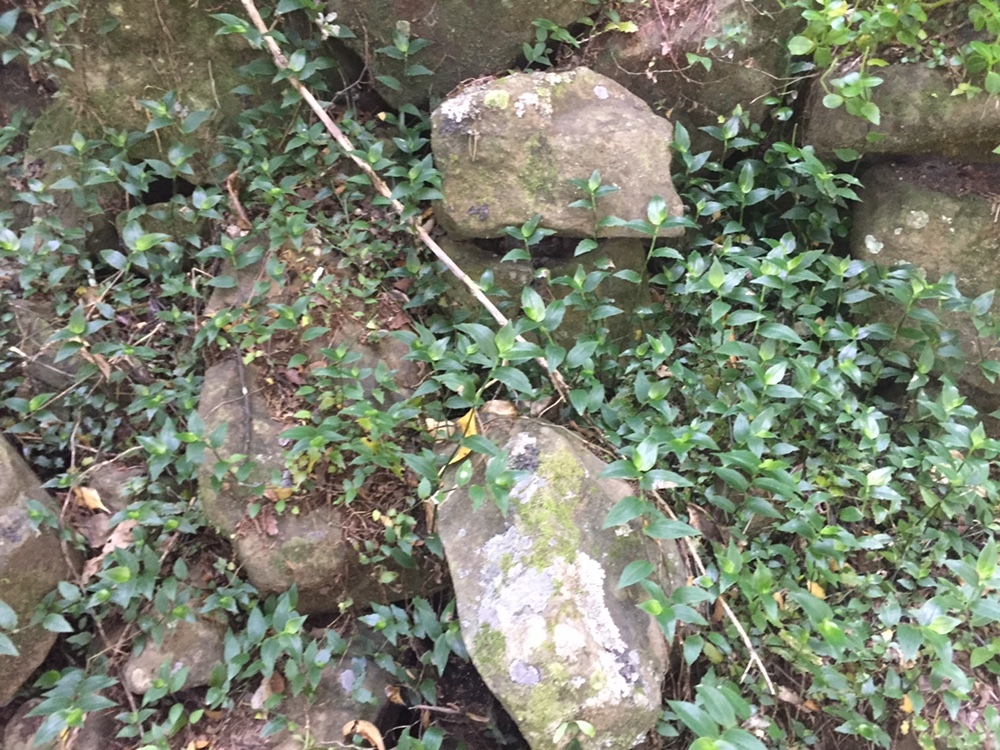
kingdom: Plantae
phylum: Tracheophyta
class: Liliopsida
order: Commelinales
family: Commelinaceae
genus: Tradescantia
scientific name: Tradescantia fluminensis
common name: Wandering-jew
